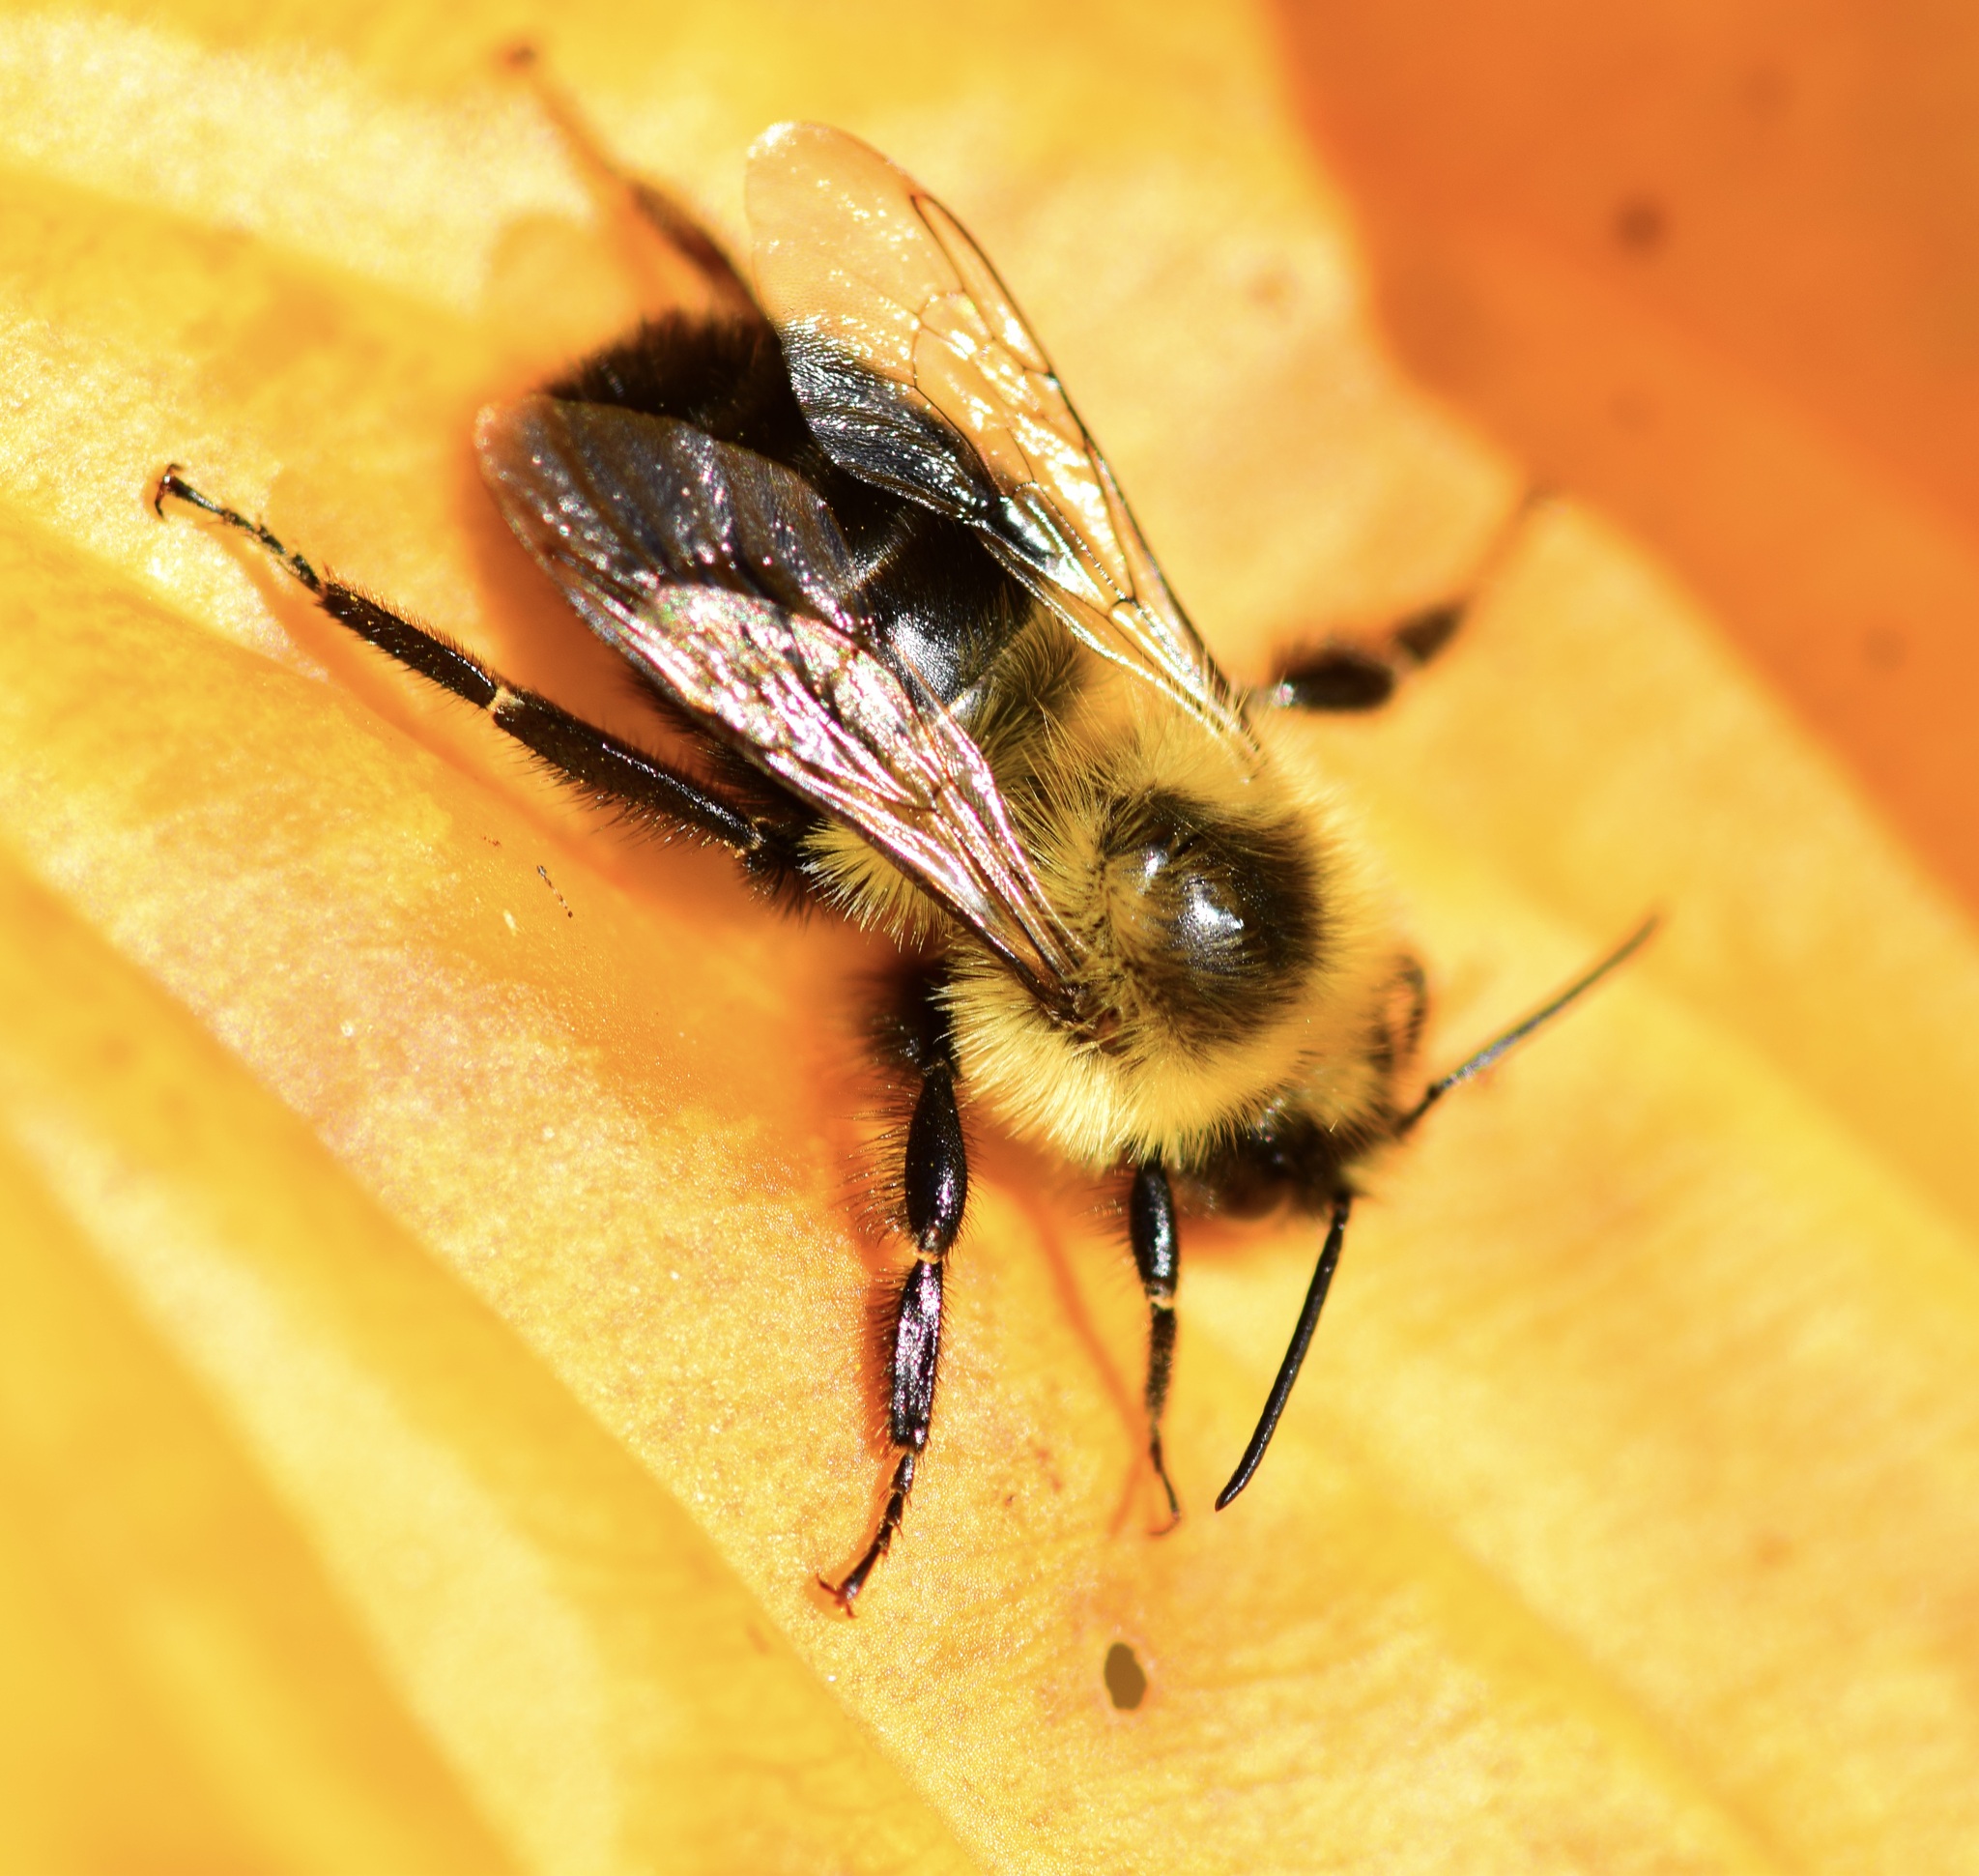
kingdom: Animalia
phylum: Arthropoda
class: Insecta
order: Hymenoptera
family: Apidae
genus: Bombus
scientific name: Bombus impatiens
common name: Common eastern bumble bee
